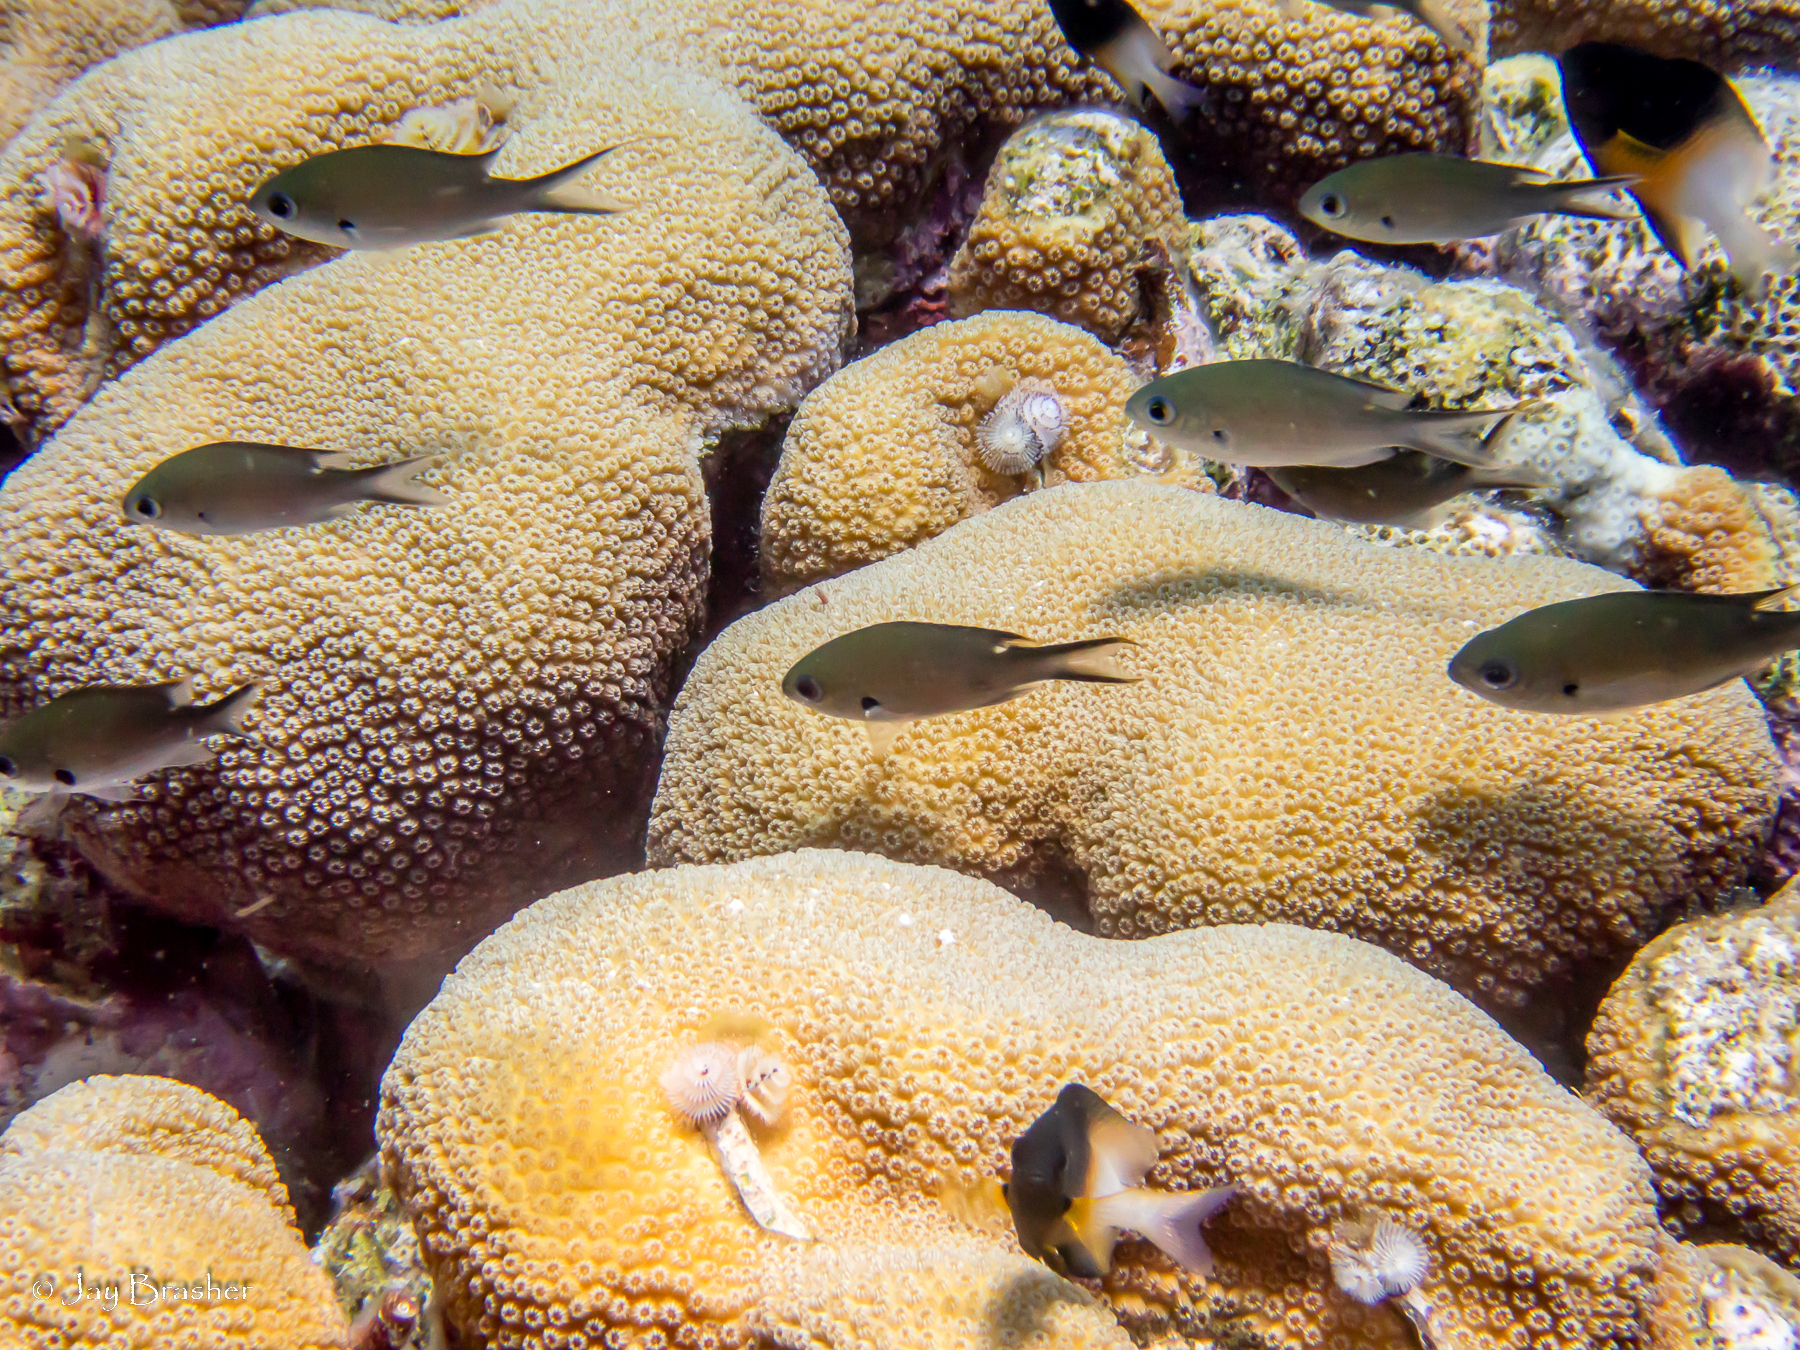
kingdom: Animalia
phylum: Chordata
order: Perciformes
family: Pomacentridae
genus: Stegastes
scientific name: Stegastes partitus
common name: Bicolor damselfish
